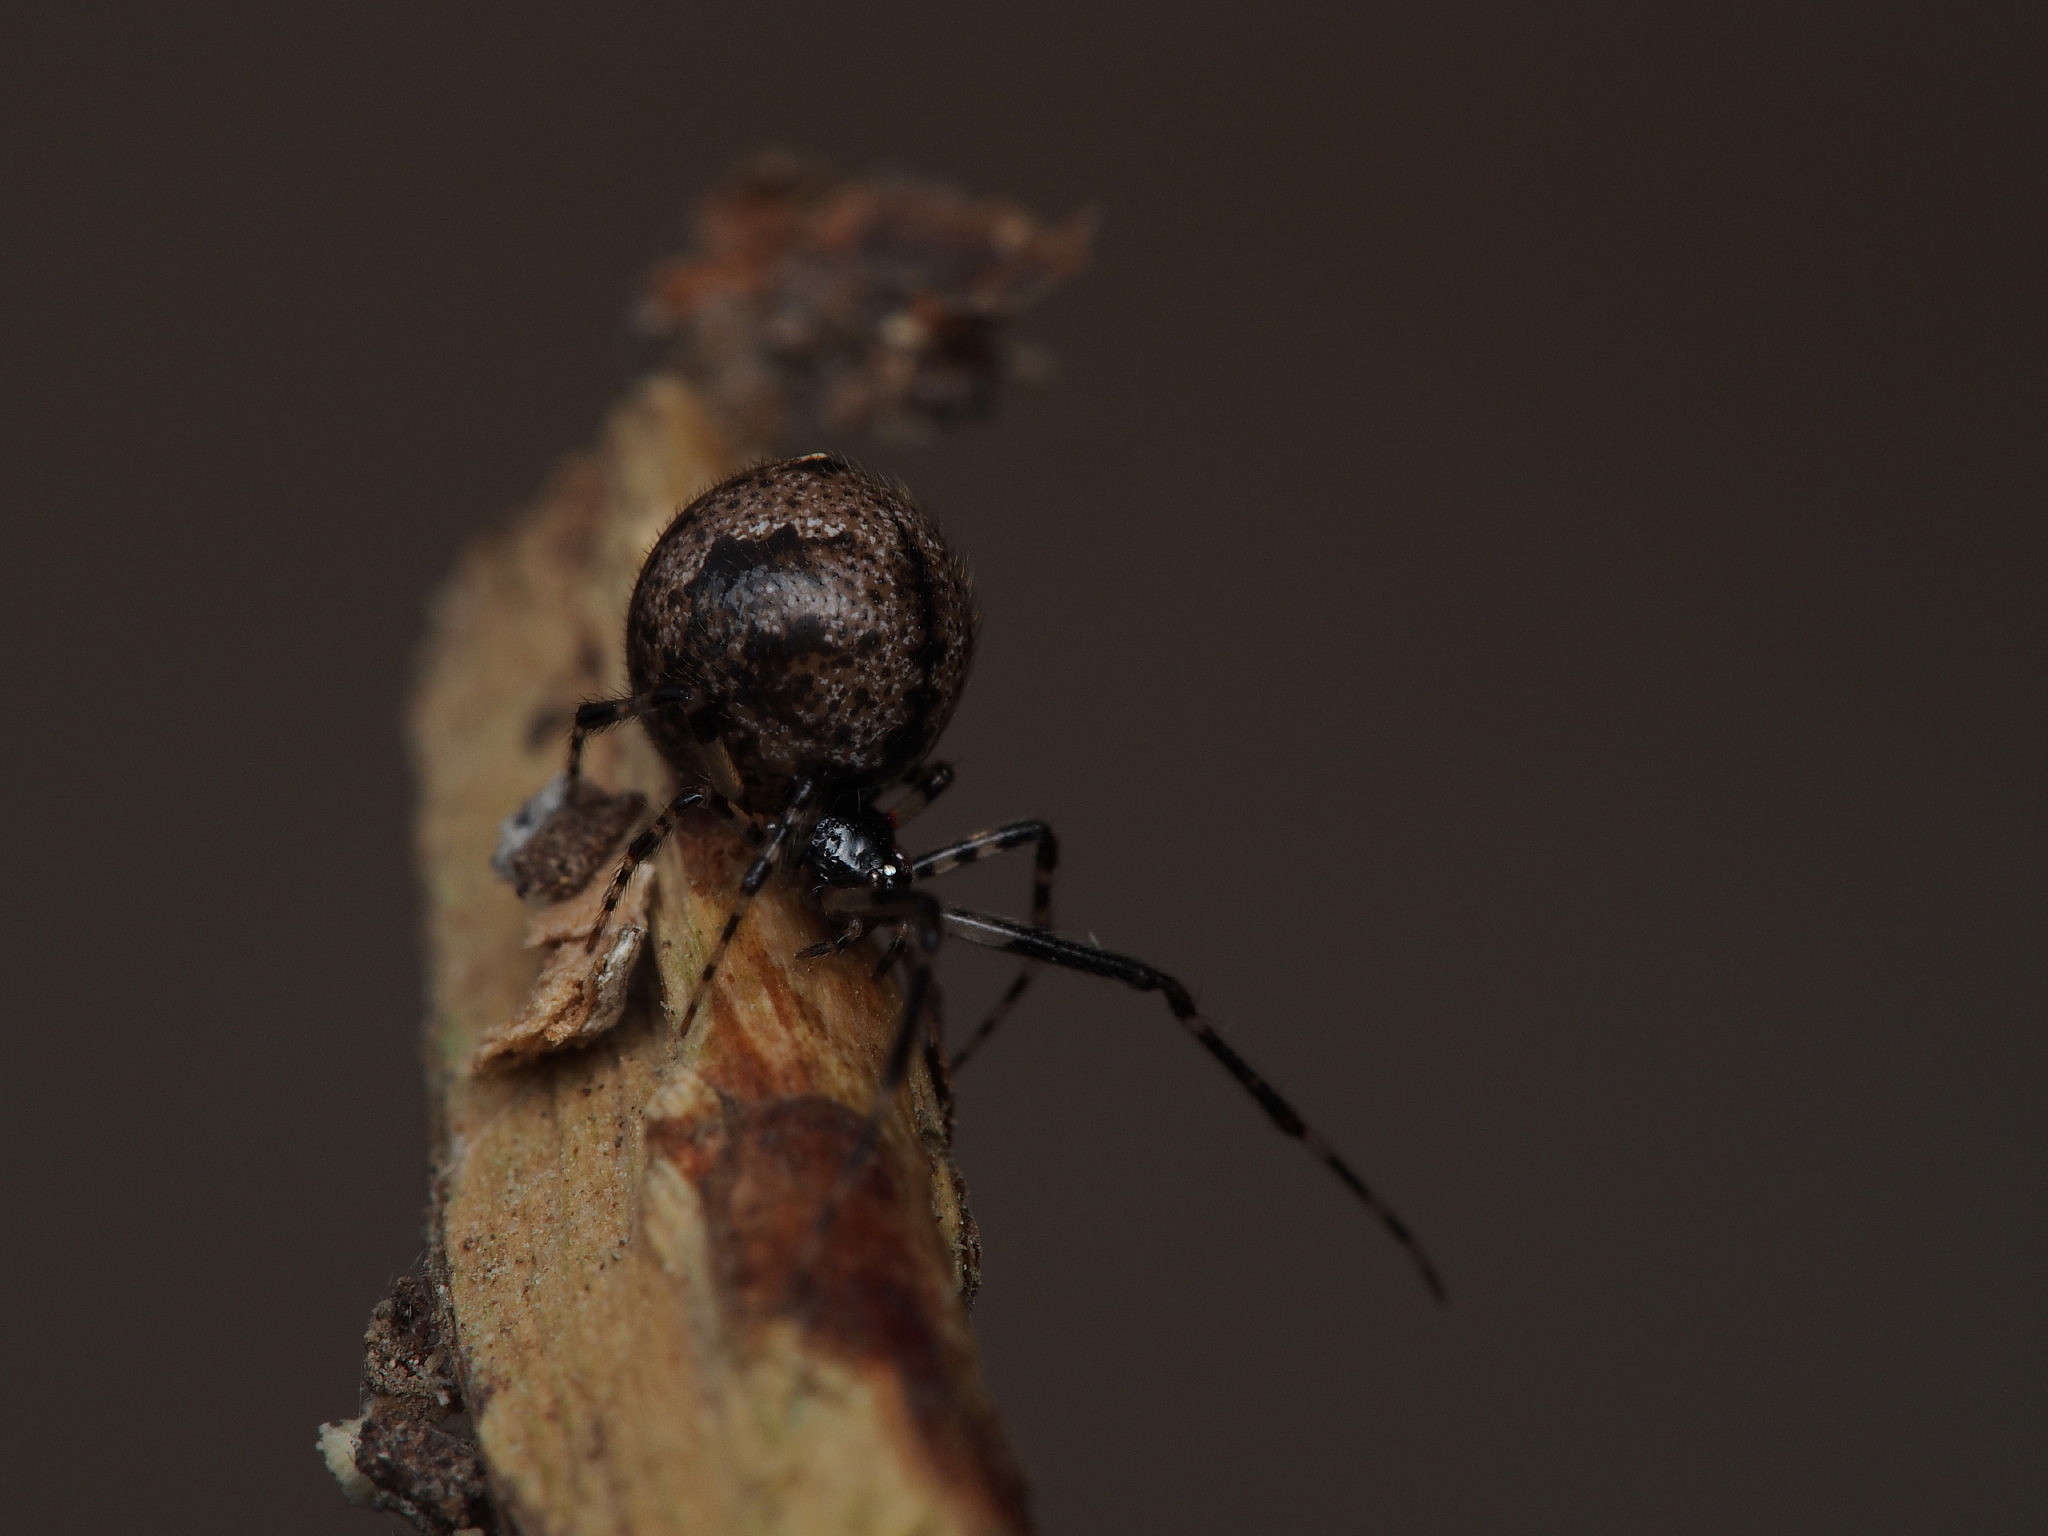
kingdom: Animalia
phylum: Arthropoda
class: Arachnida
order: Araneae
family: Theridiidae
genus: Cryptachaea
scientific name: Cryptachaea blattea
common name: Theridiid spider
